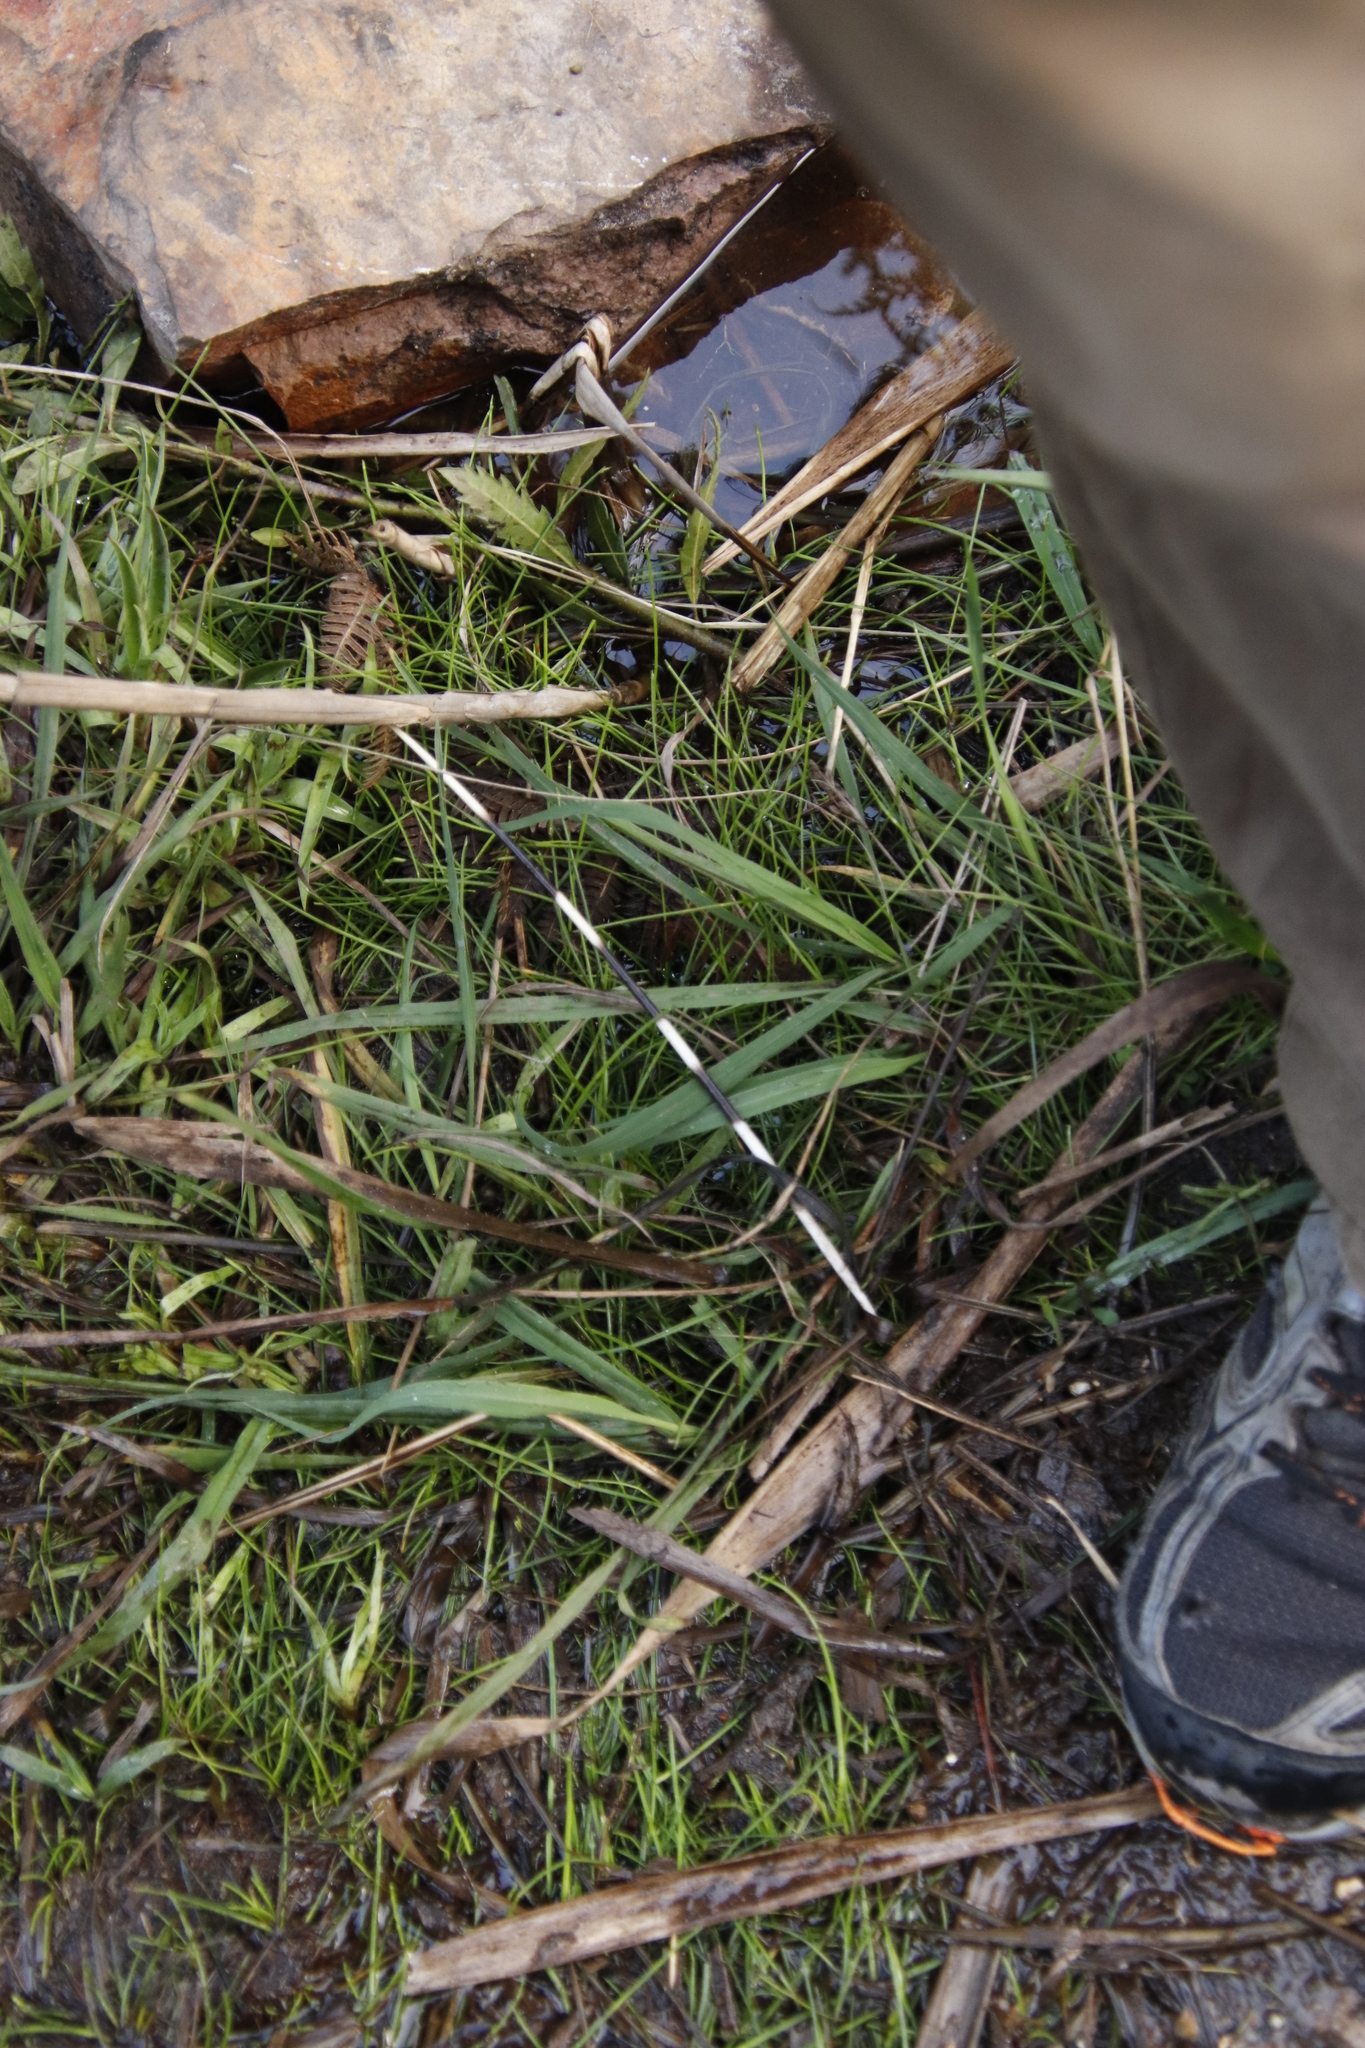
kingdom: Animalia
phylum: Chordata
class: Mammalia
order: Rodentia
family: Hystricidae
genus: Hystrix
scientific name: Hystrix africaeaustralis
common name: Cape porcupine
